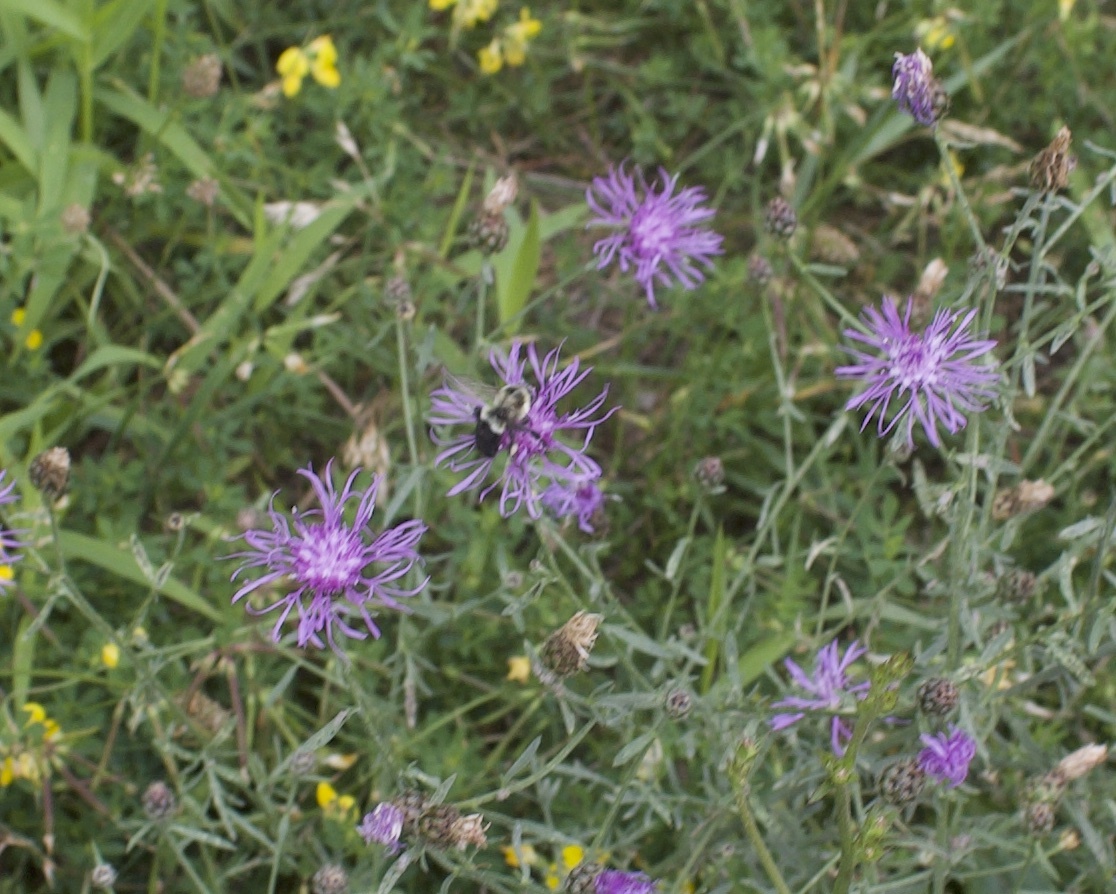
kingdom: Animalia
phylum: Arthropoda
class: Insecta
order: Hymenoptera
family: Apidae
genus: Bombus
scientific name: Bombus impatiens
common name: Common eastern bumble bee
